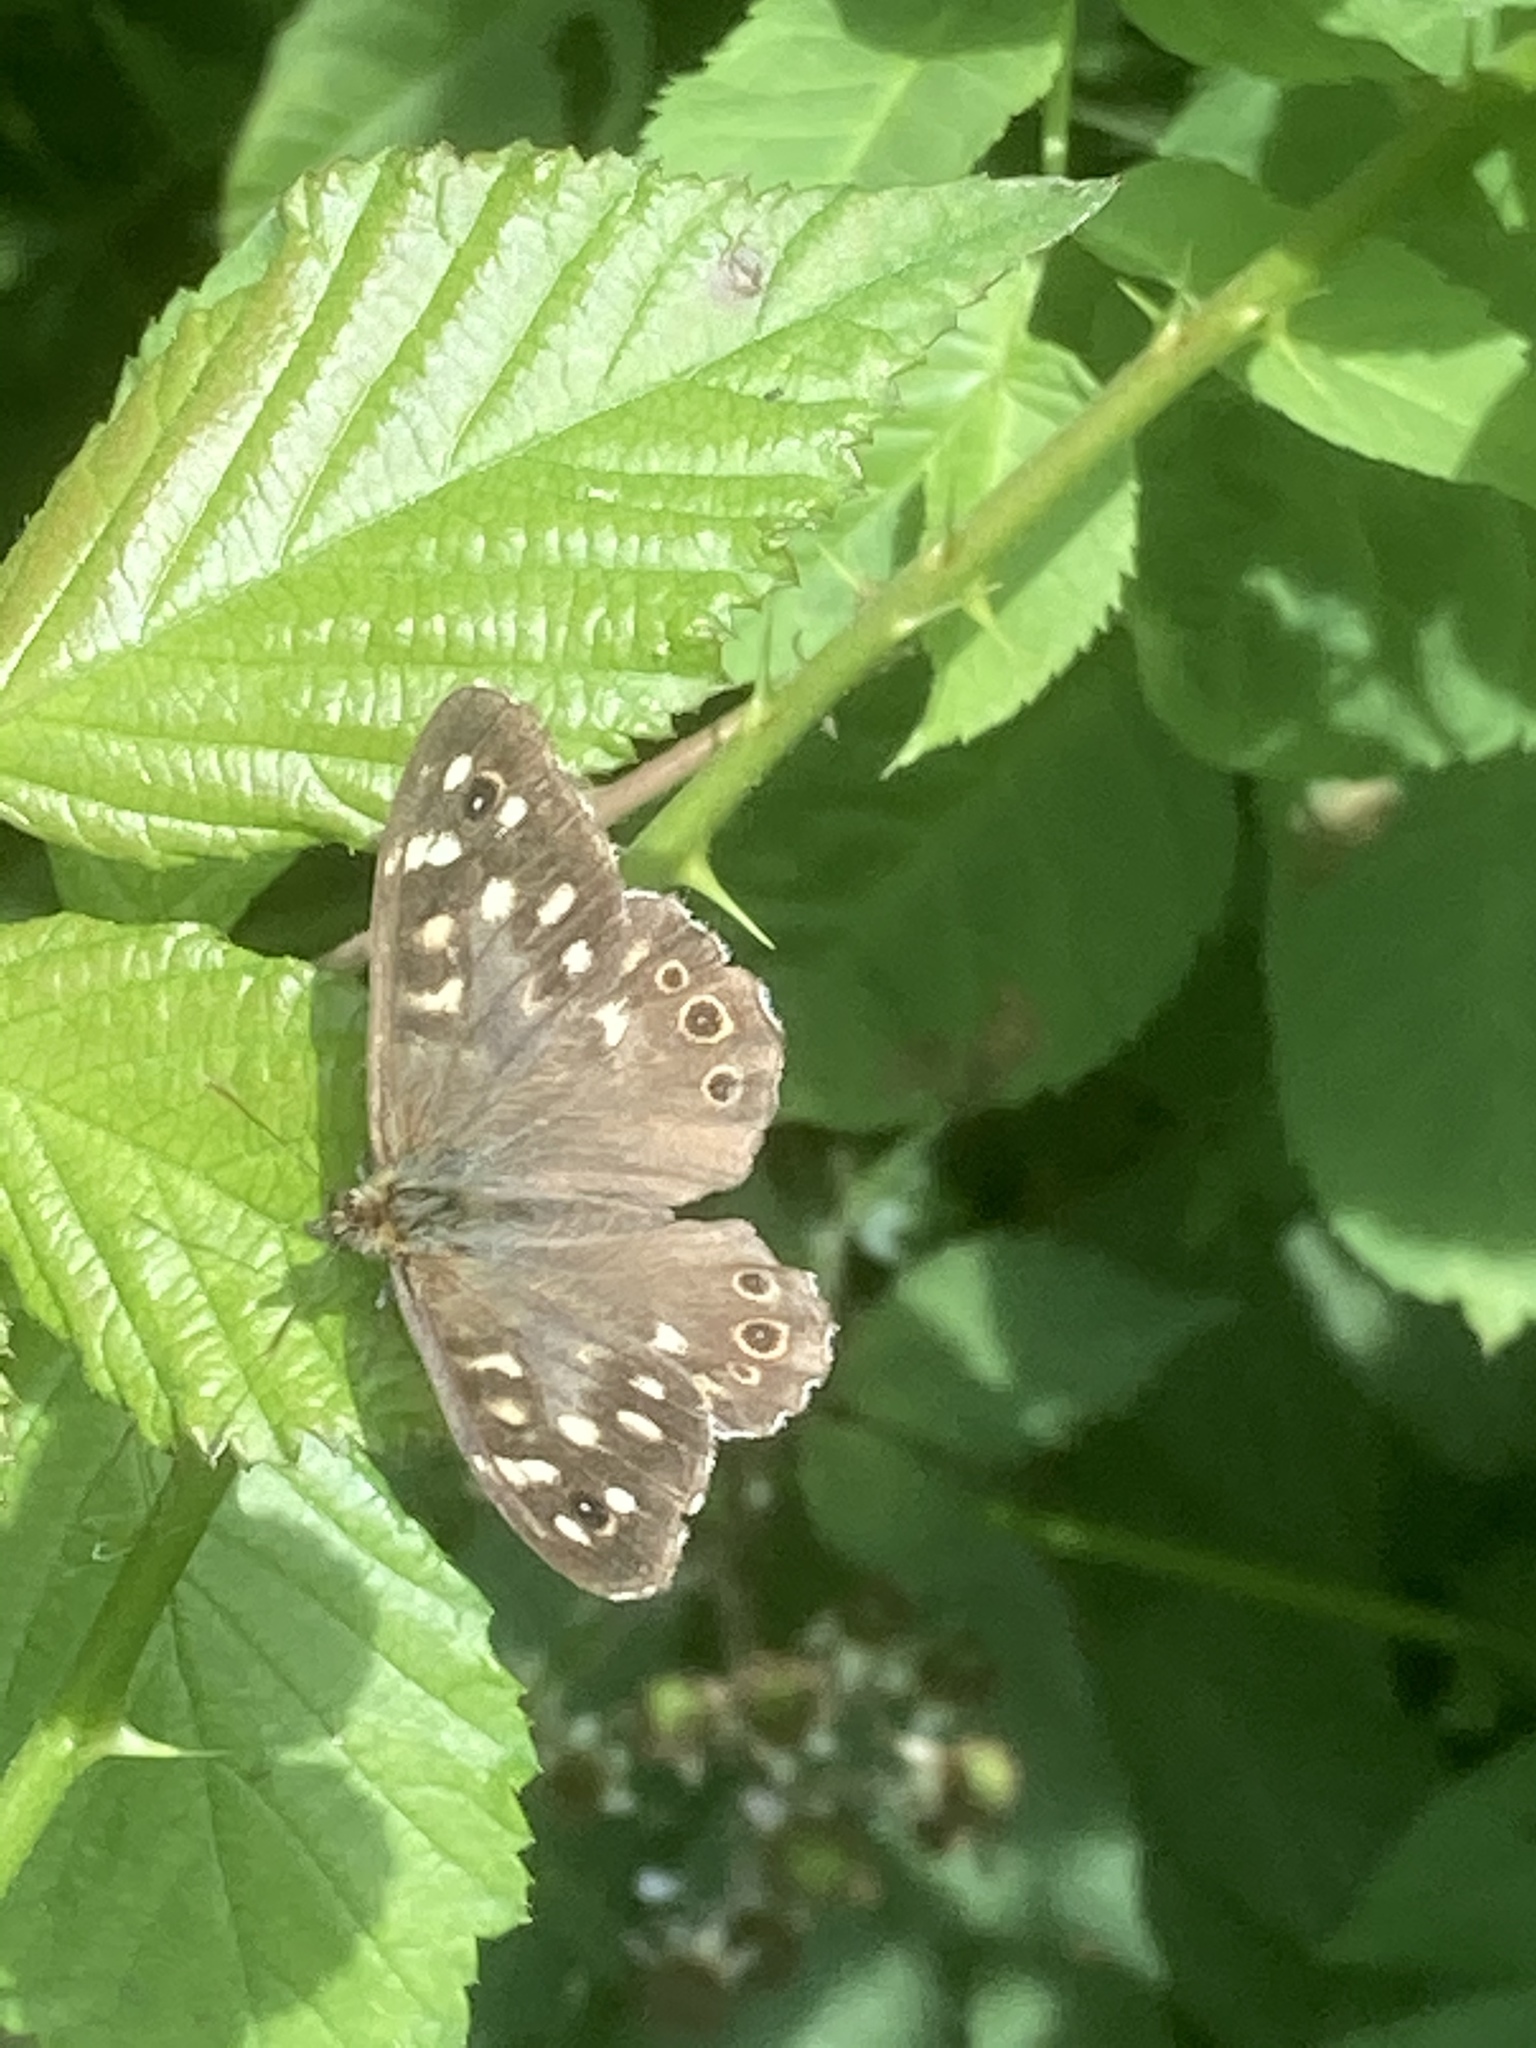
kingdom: Animalia
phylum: Arthropoda
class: Insecta
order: Lepidoptera
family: Nymphalidae
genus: Pararge
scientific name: Pararge aegeria
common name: Speckled wood
